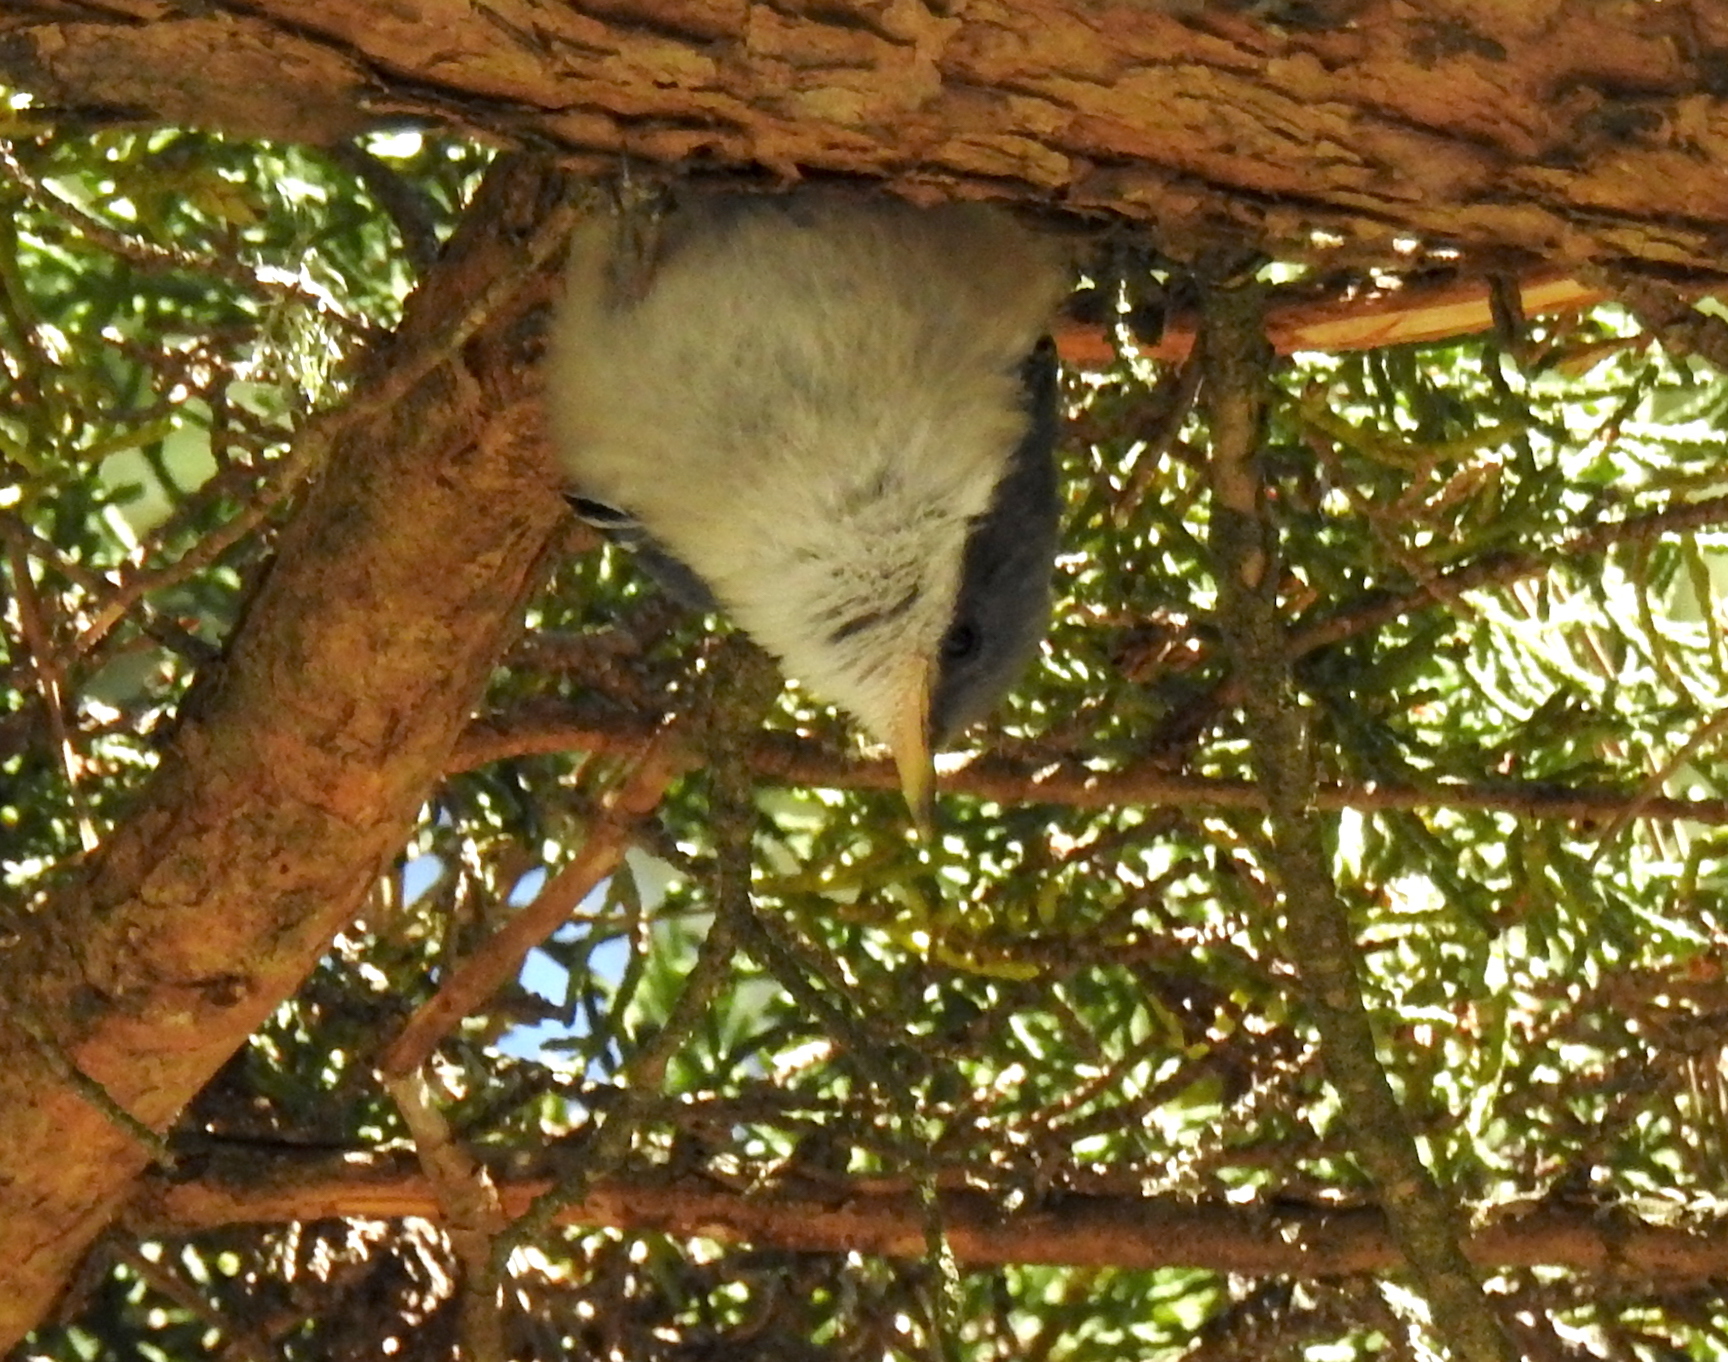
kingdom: Animalia
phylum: Chordata
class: Aves
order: Passeriformes
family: Sittidae
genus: Sitta
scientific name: Sitta pygmaea
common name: Pygmy nuthatch
